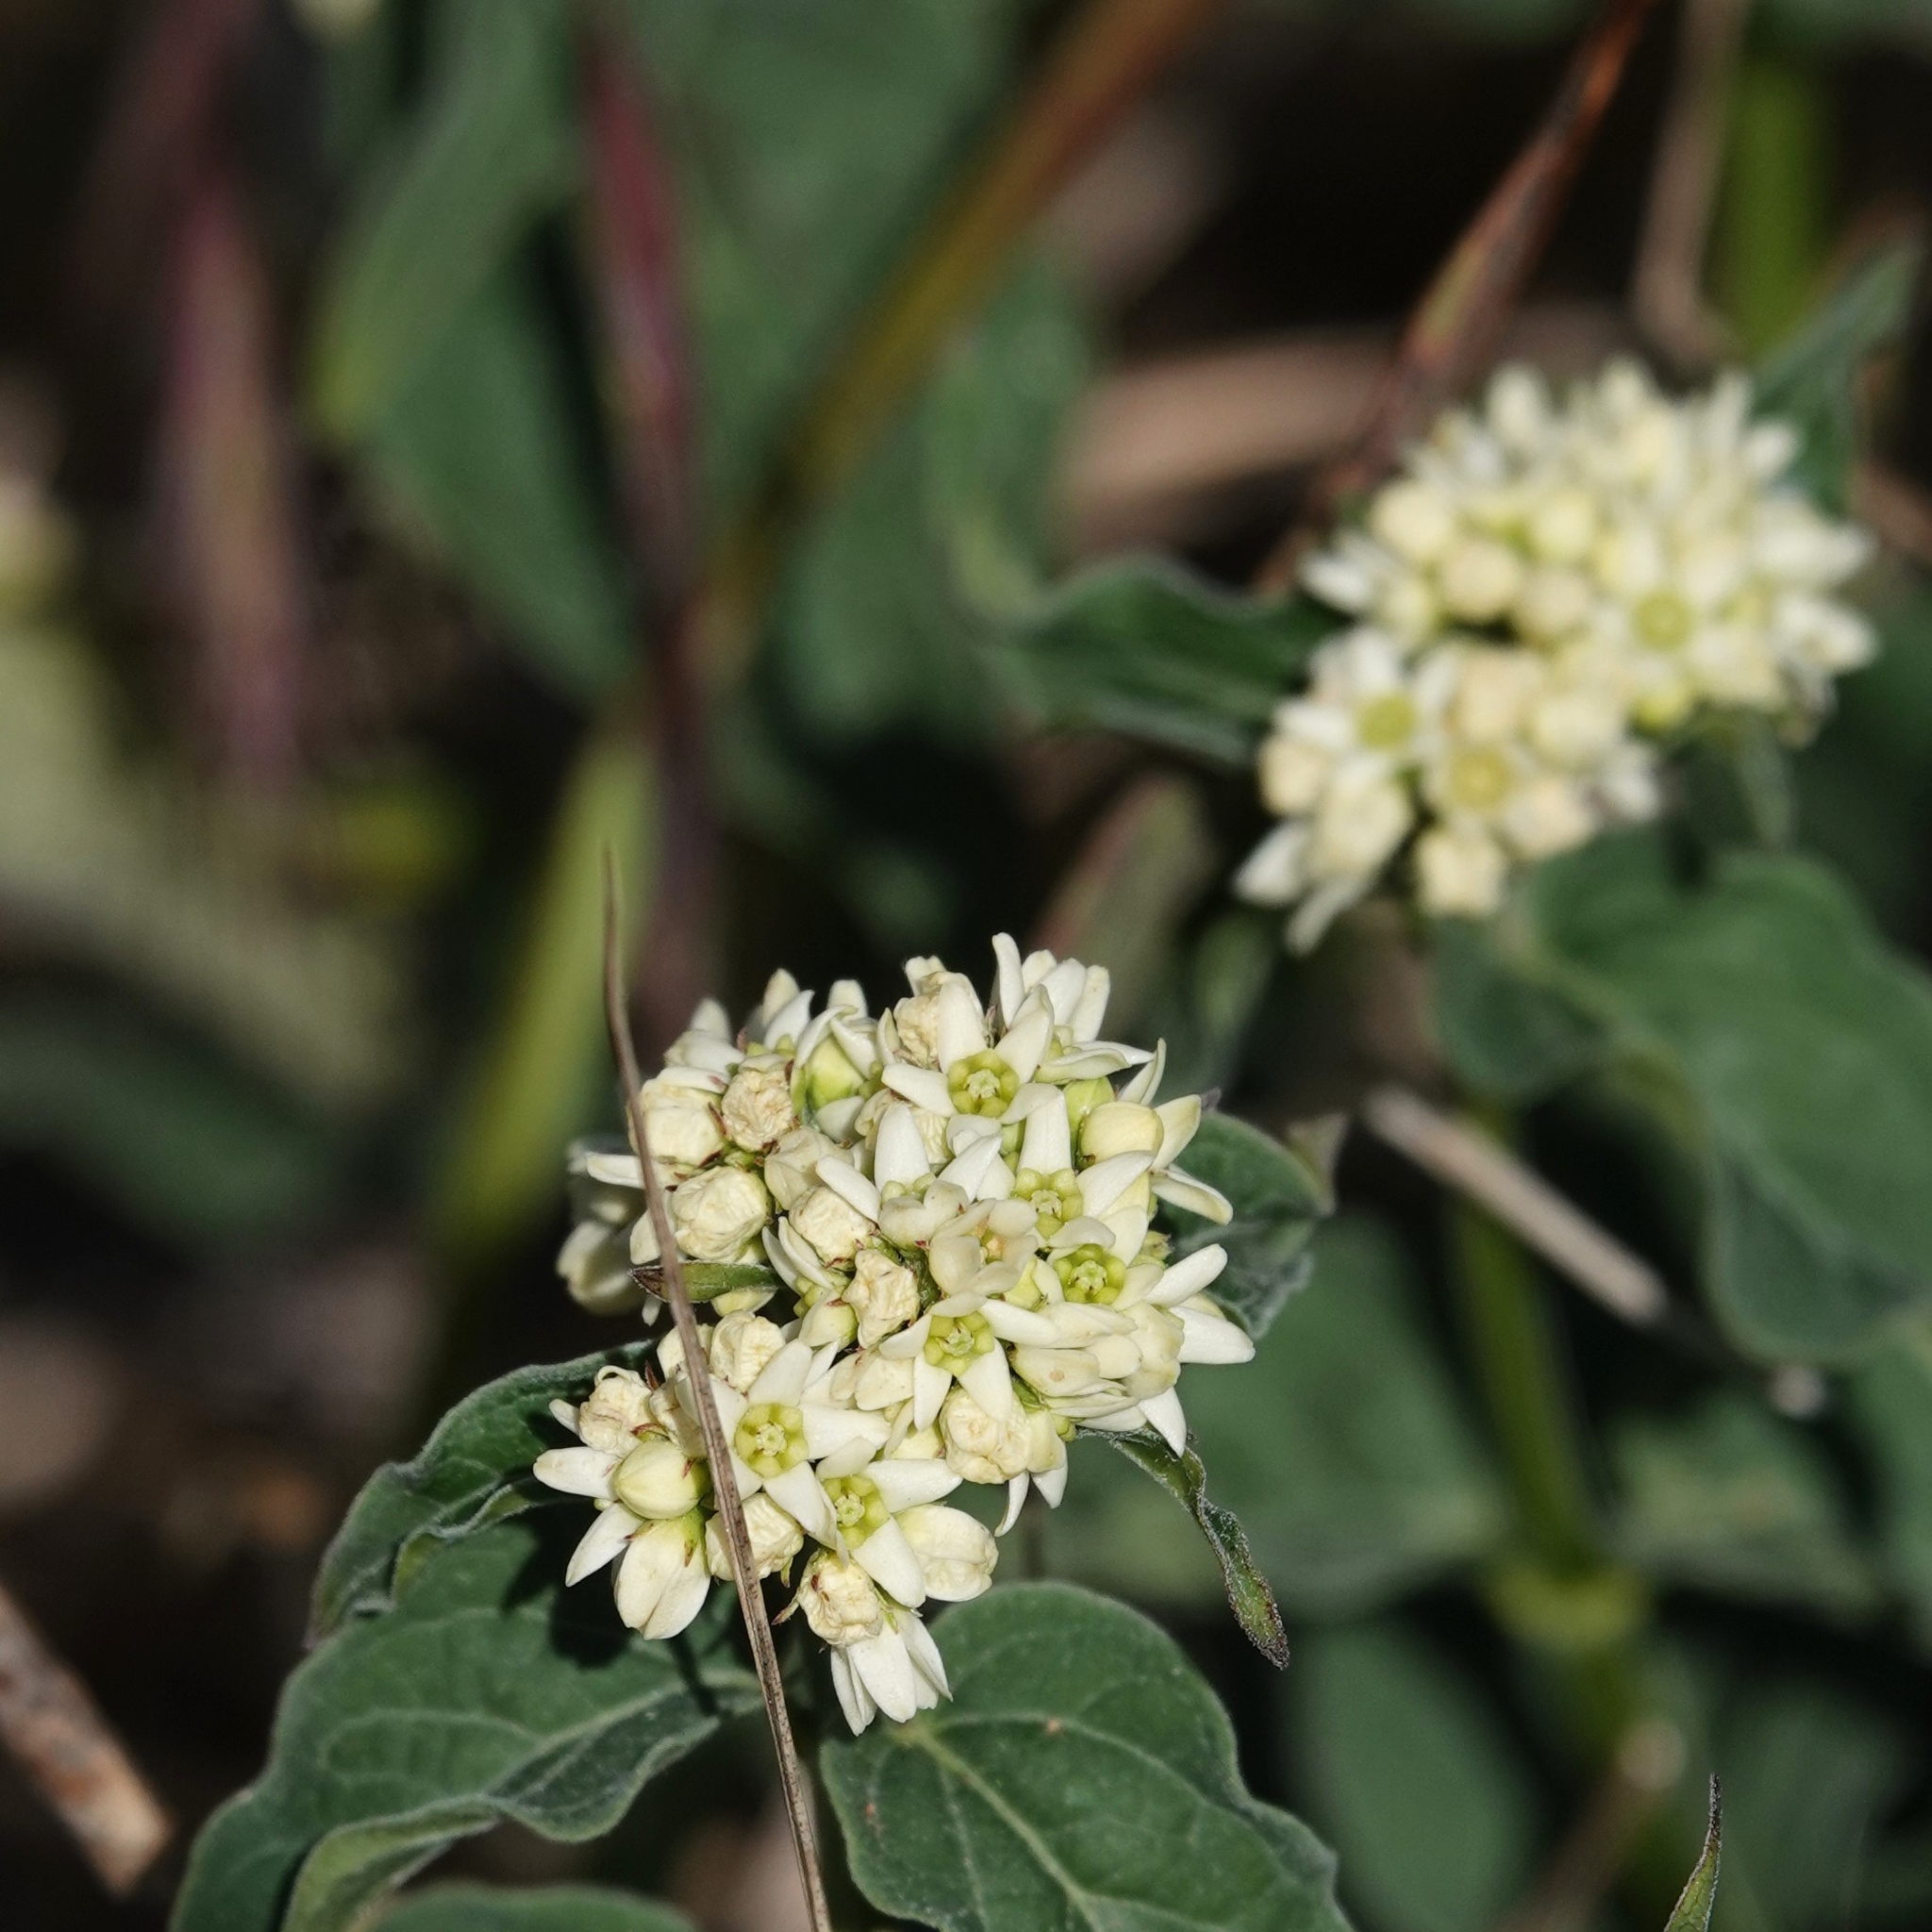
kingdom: Plantae
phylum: Tracheophyta
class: Magnoliopsida
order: Gentianales
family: Apocynaceae
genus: Vincetoxicum
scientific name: Vincetoxicum hirundinaria
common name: White swallowwort
